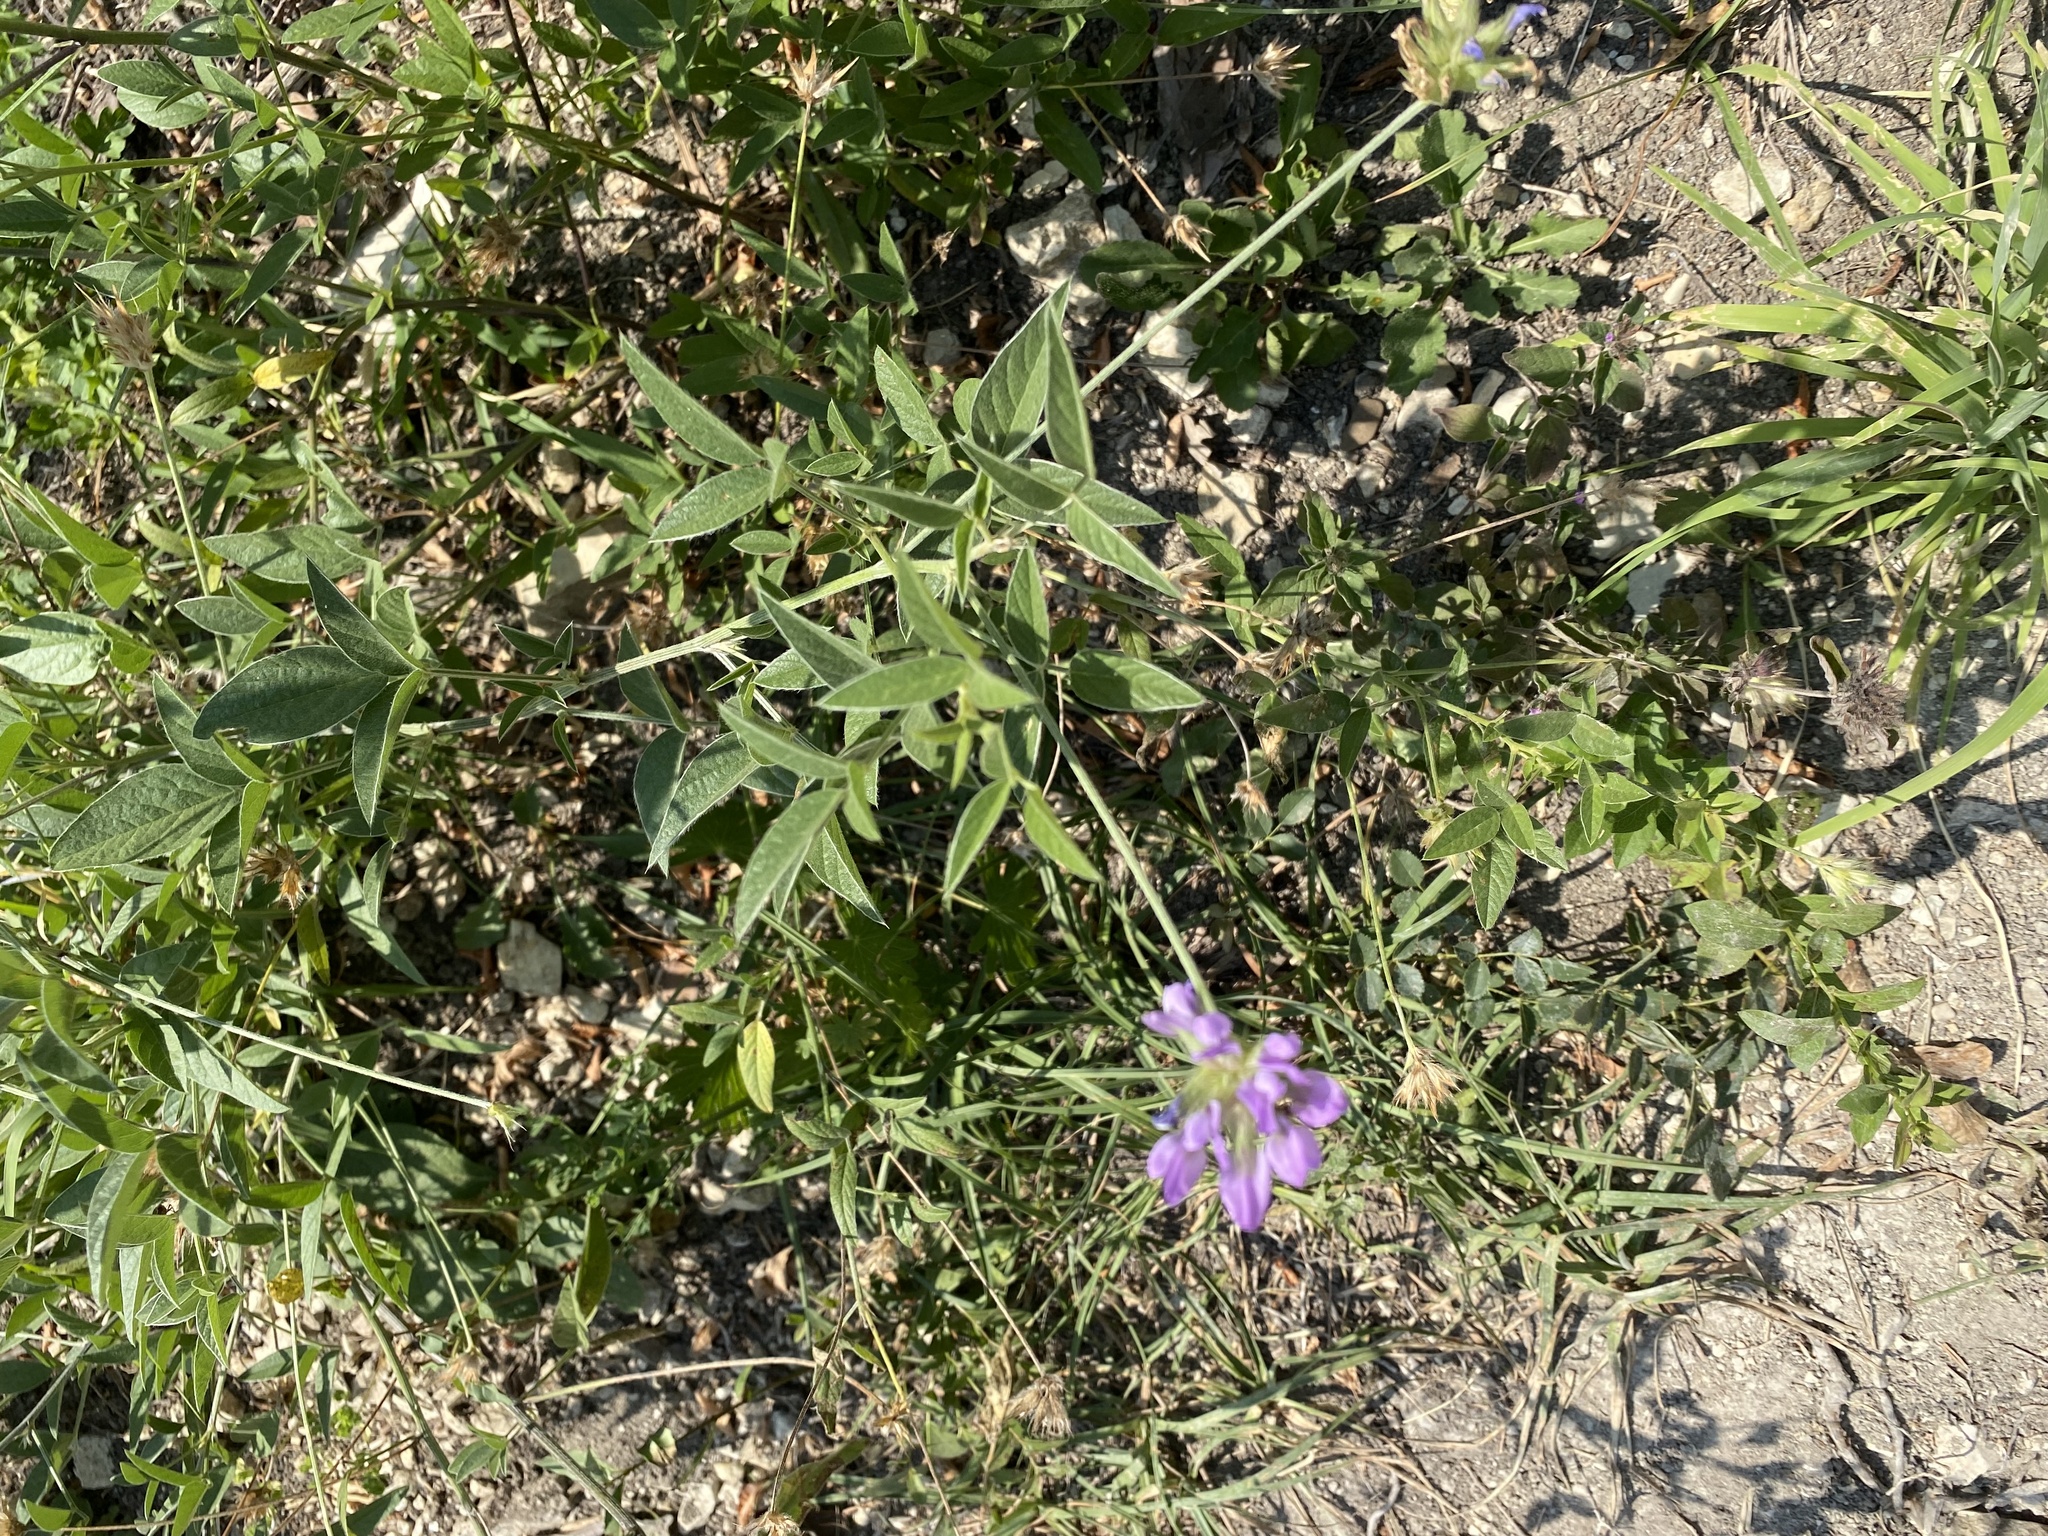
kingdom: Plantae
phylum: Tracheophyta
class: Magnoliopsida
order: Fabales
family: Fabaceae
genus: Bituminaria
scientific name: Bituminaria bituminosa
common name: Arabian pea
